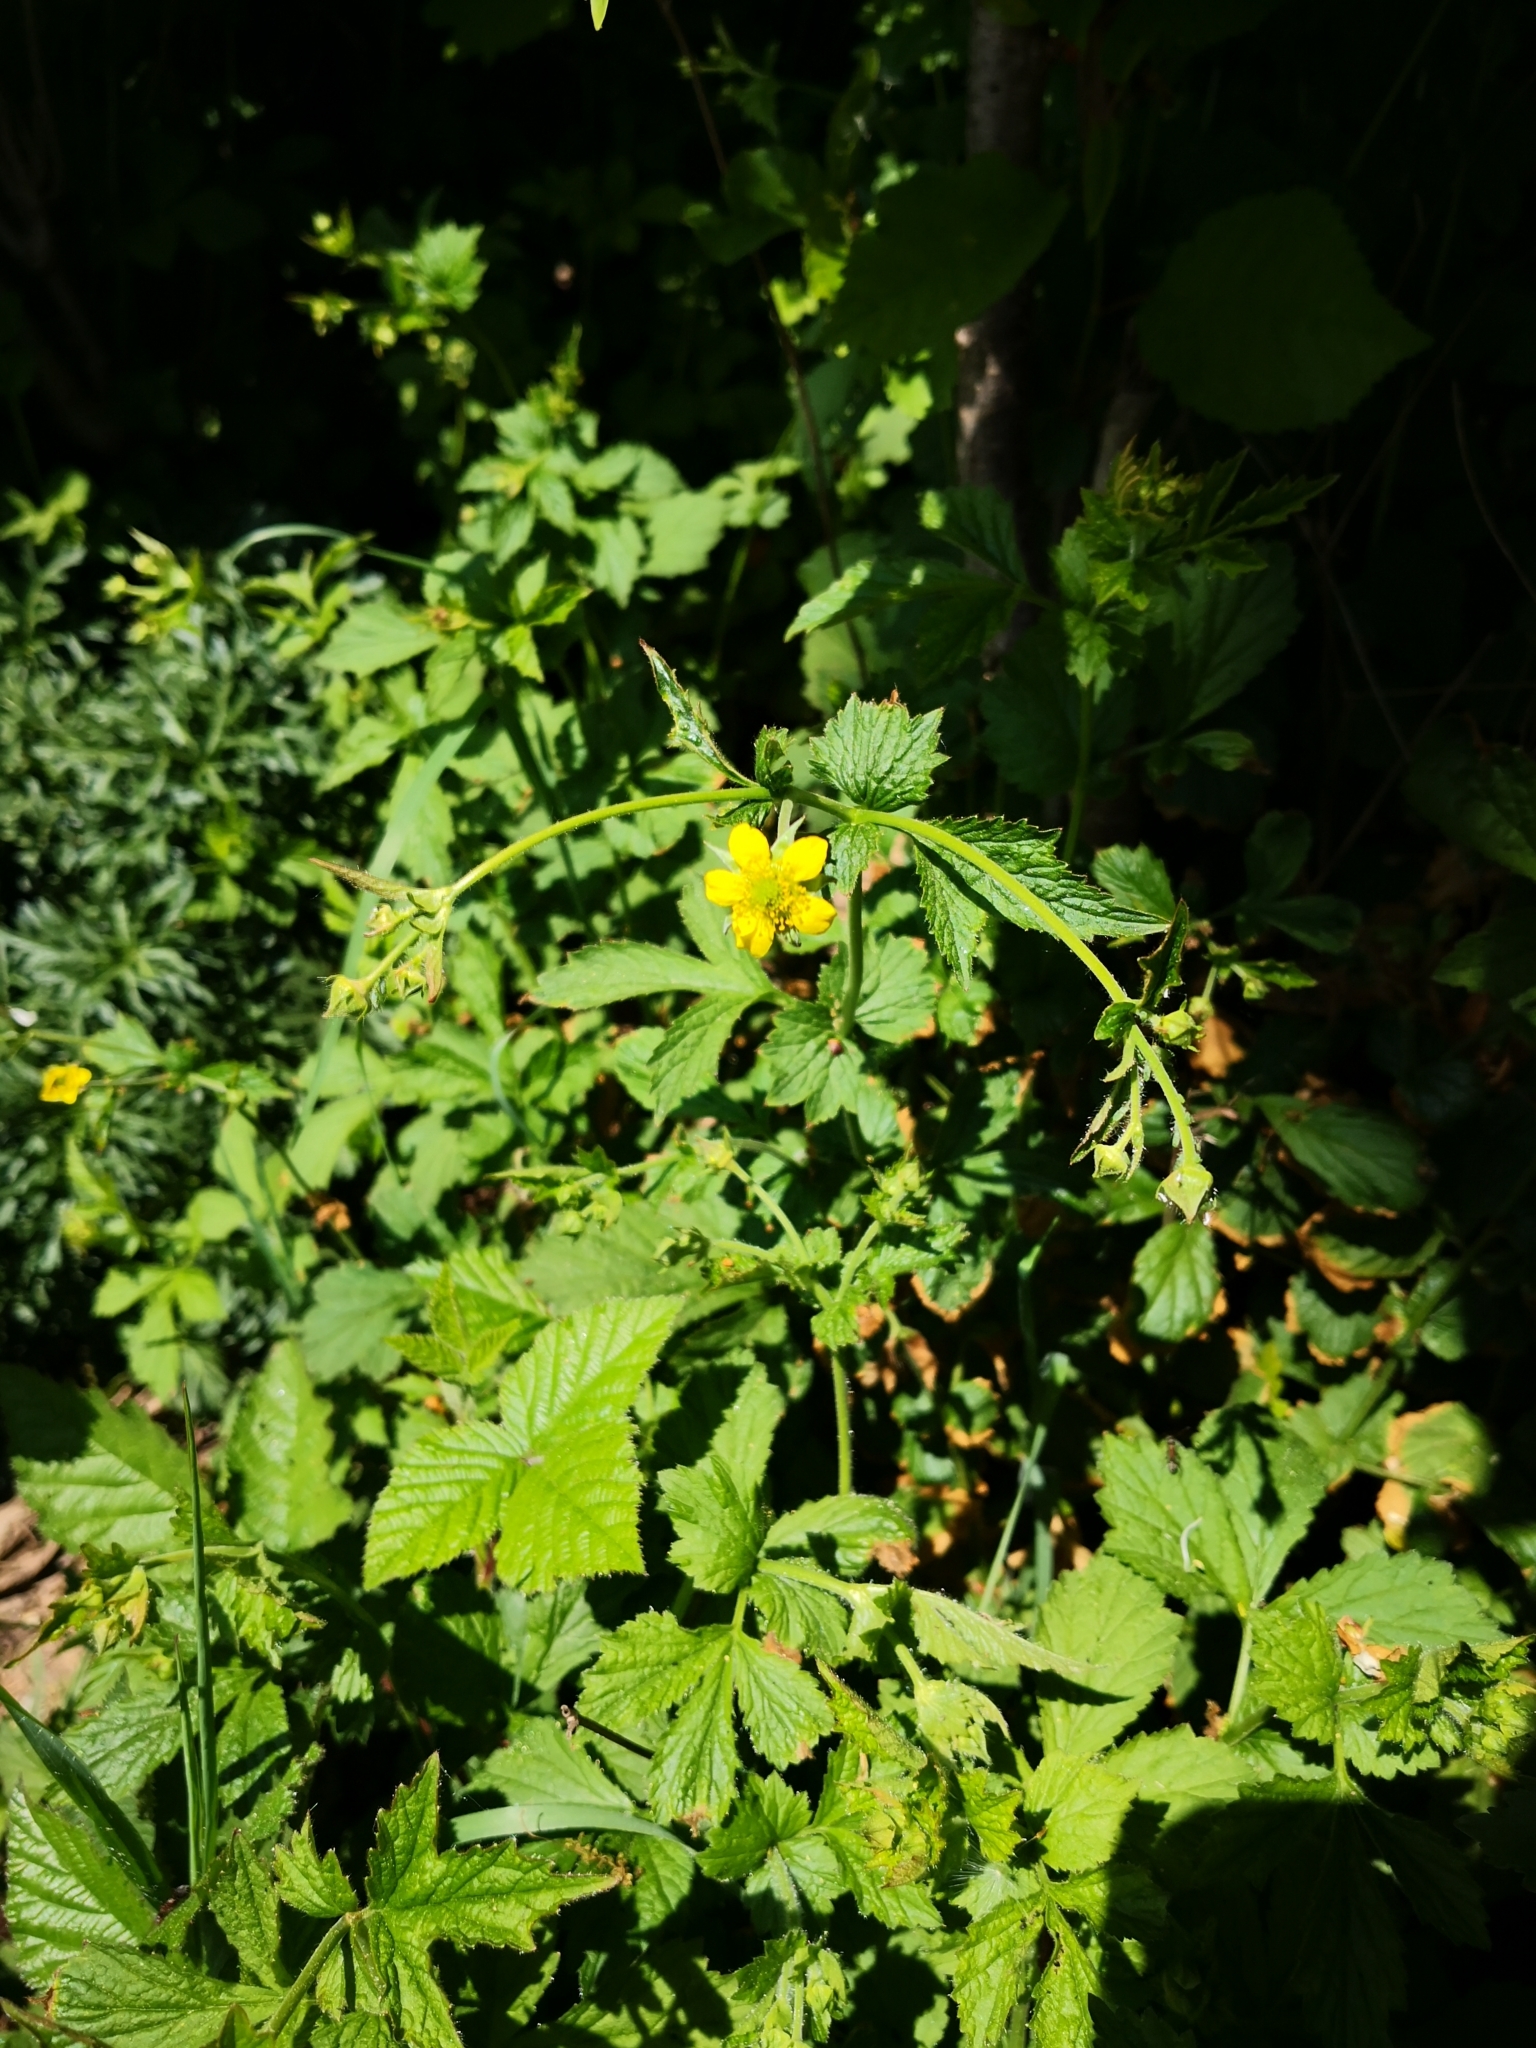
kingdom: Plantae
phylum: Tracheophyta
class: Magnoliopsida
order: Rosales
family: Rosaceae
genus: Geum
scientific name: Geum urbanum
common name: Wood avens
